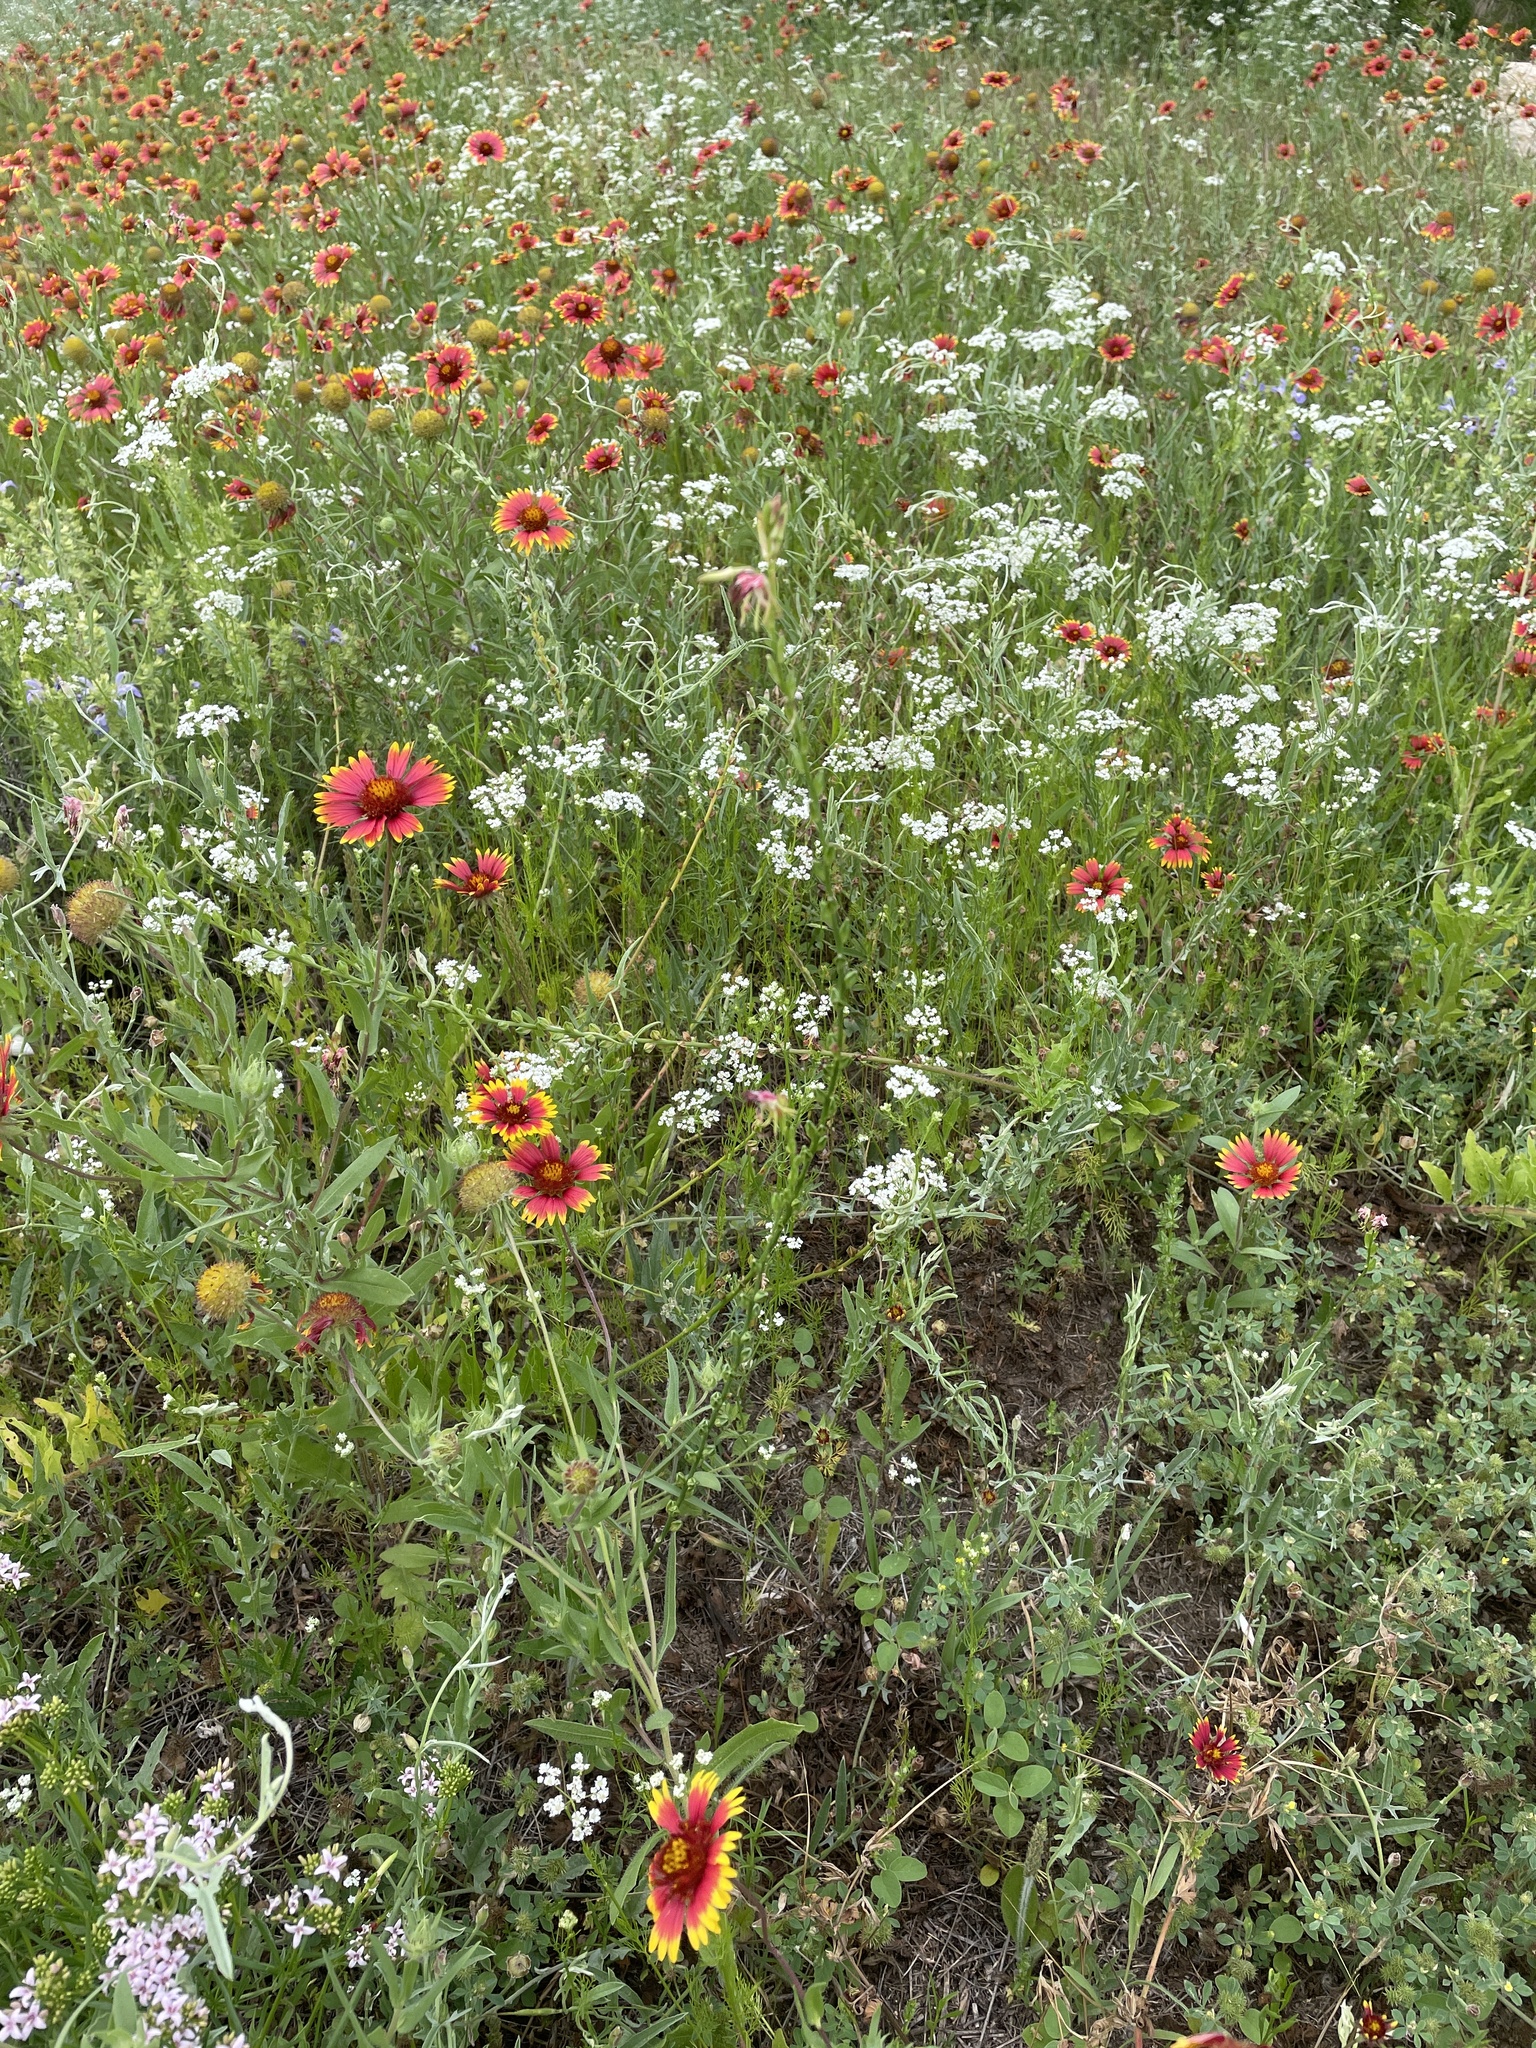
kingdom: Plantae
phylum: Tracheophyta
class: Magnoliopsida
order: Myrtales
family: Onagraceae
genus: Oenothera
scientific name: Oenothera suffulta
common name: Kisses
